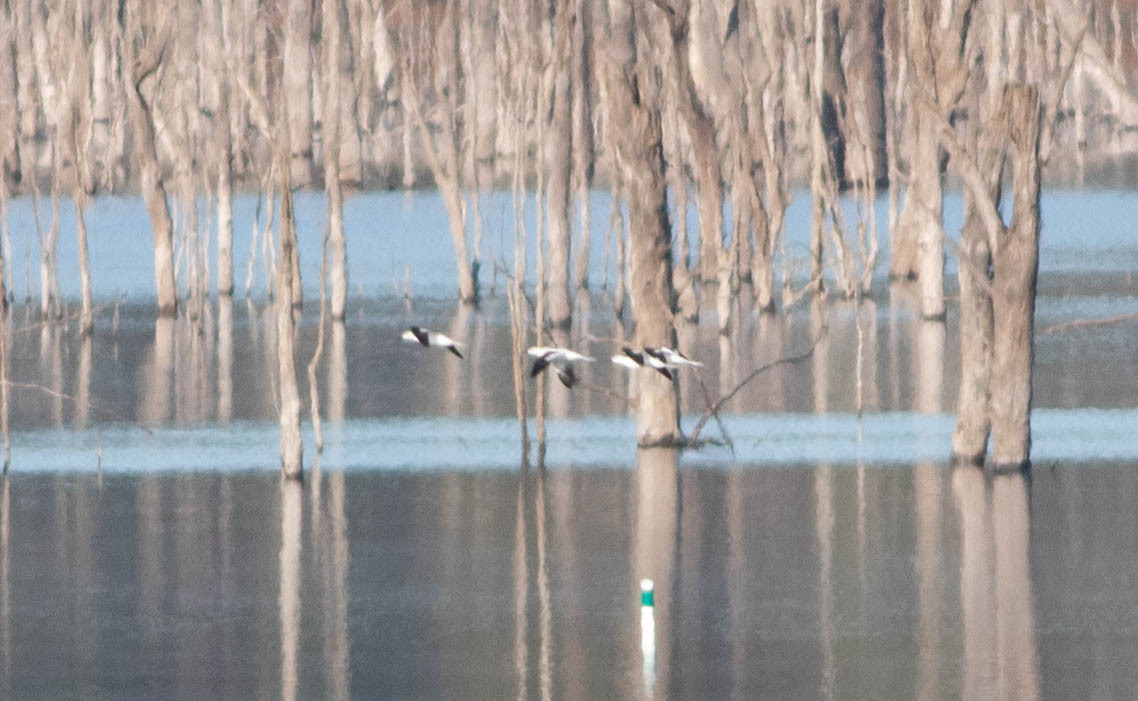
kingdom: Animalia
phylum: Chordata
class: Aves
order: Charadriiformes
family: Recurvirostridae
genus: Recurvirostra
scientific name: Recurvirostra americana
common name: American avocet
